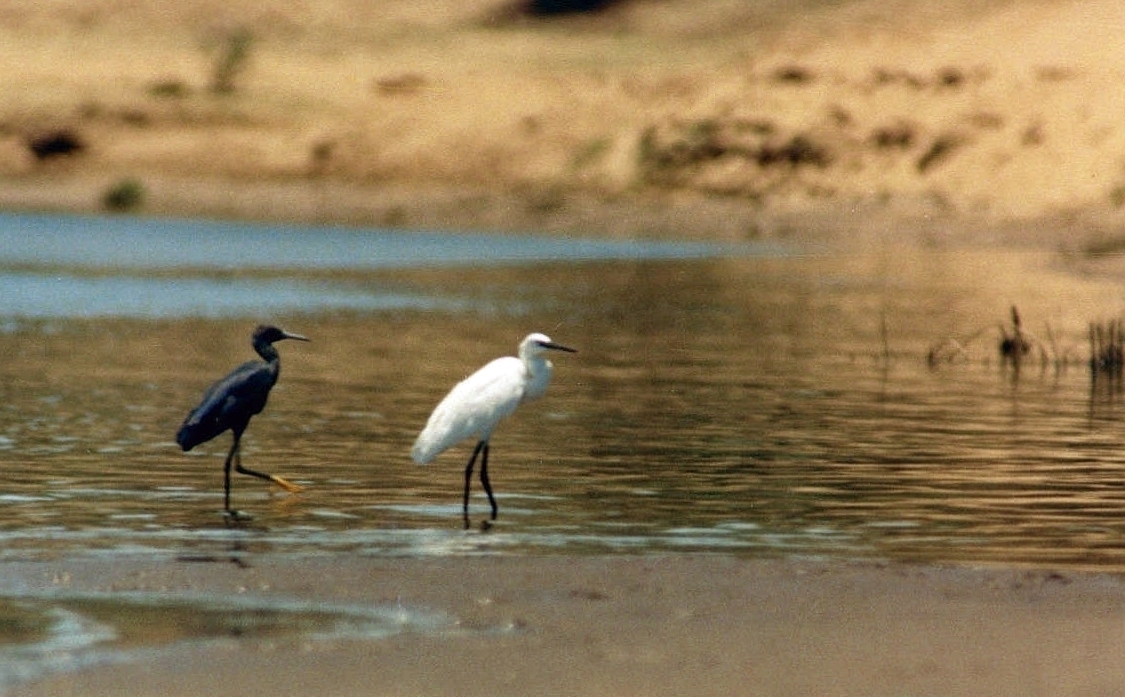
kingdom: Animalia
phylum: Chordata
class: Aves
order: Pelecaniformes
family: Ardeidae
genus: Egretta
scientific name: Egretta ardesiaca
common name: Black heron
